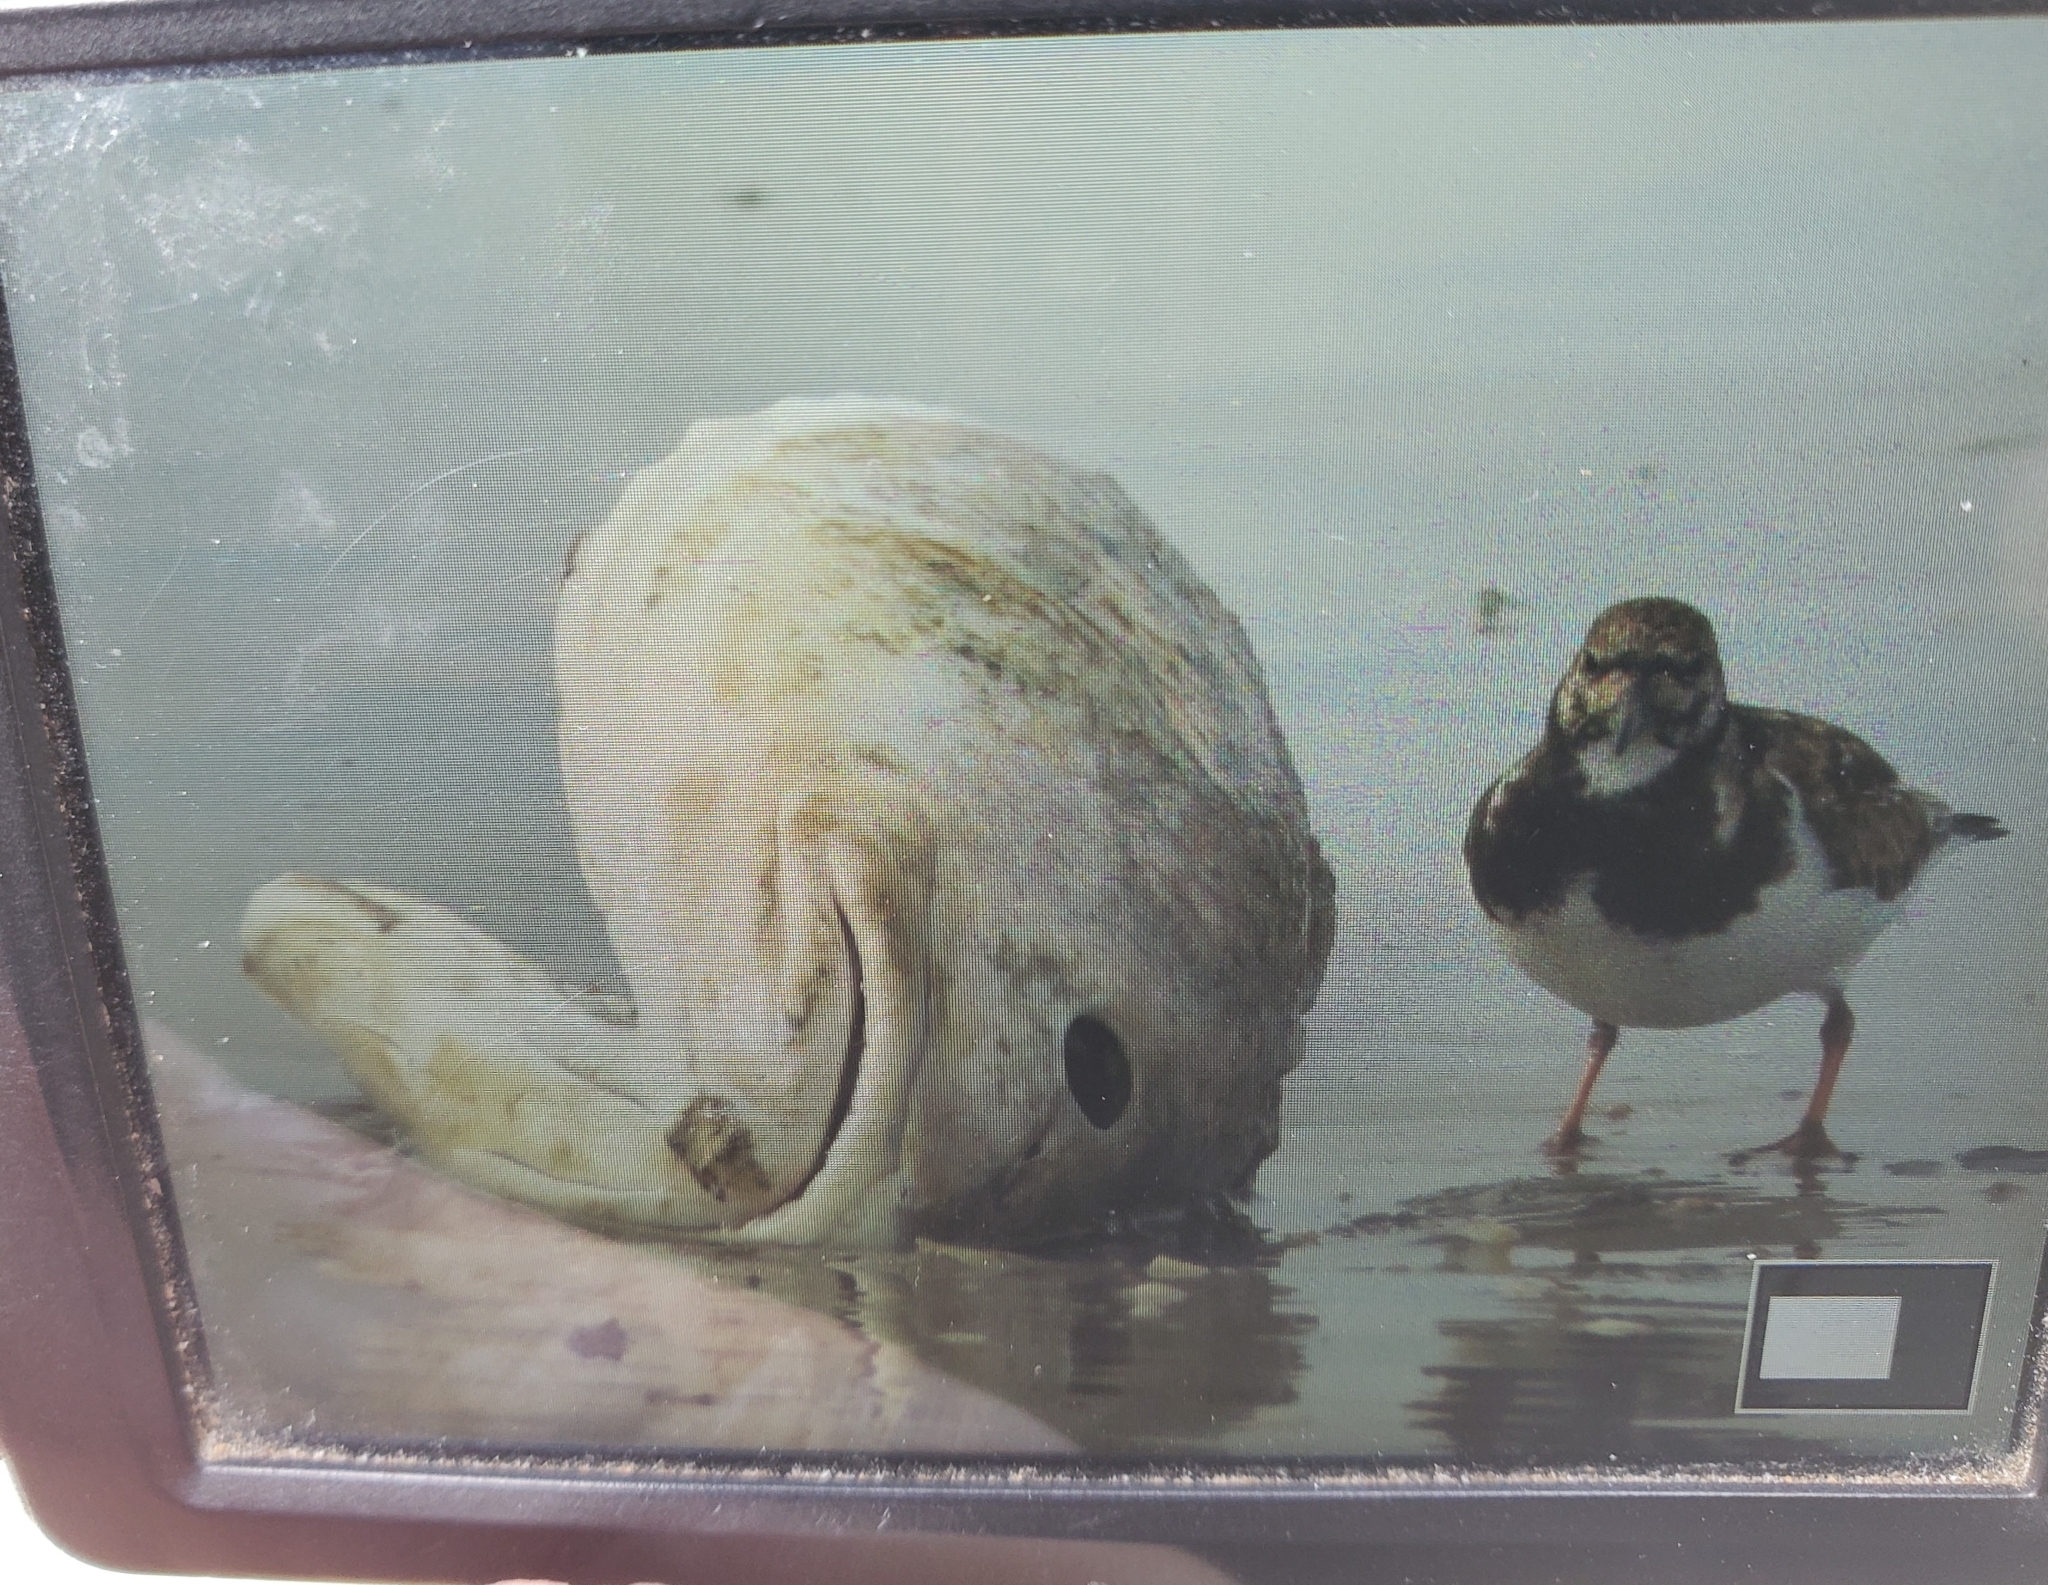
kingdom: Animalia
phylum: Chordata
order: Perciformes
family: Sciaenidae
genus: Sciaenops
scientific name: Sciaenops ocellatus
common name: Red drum
